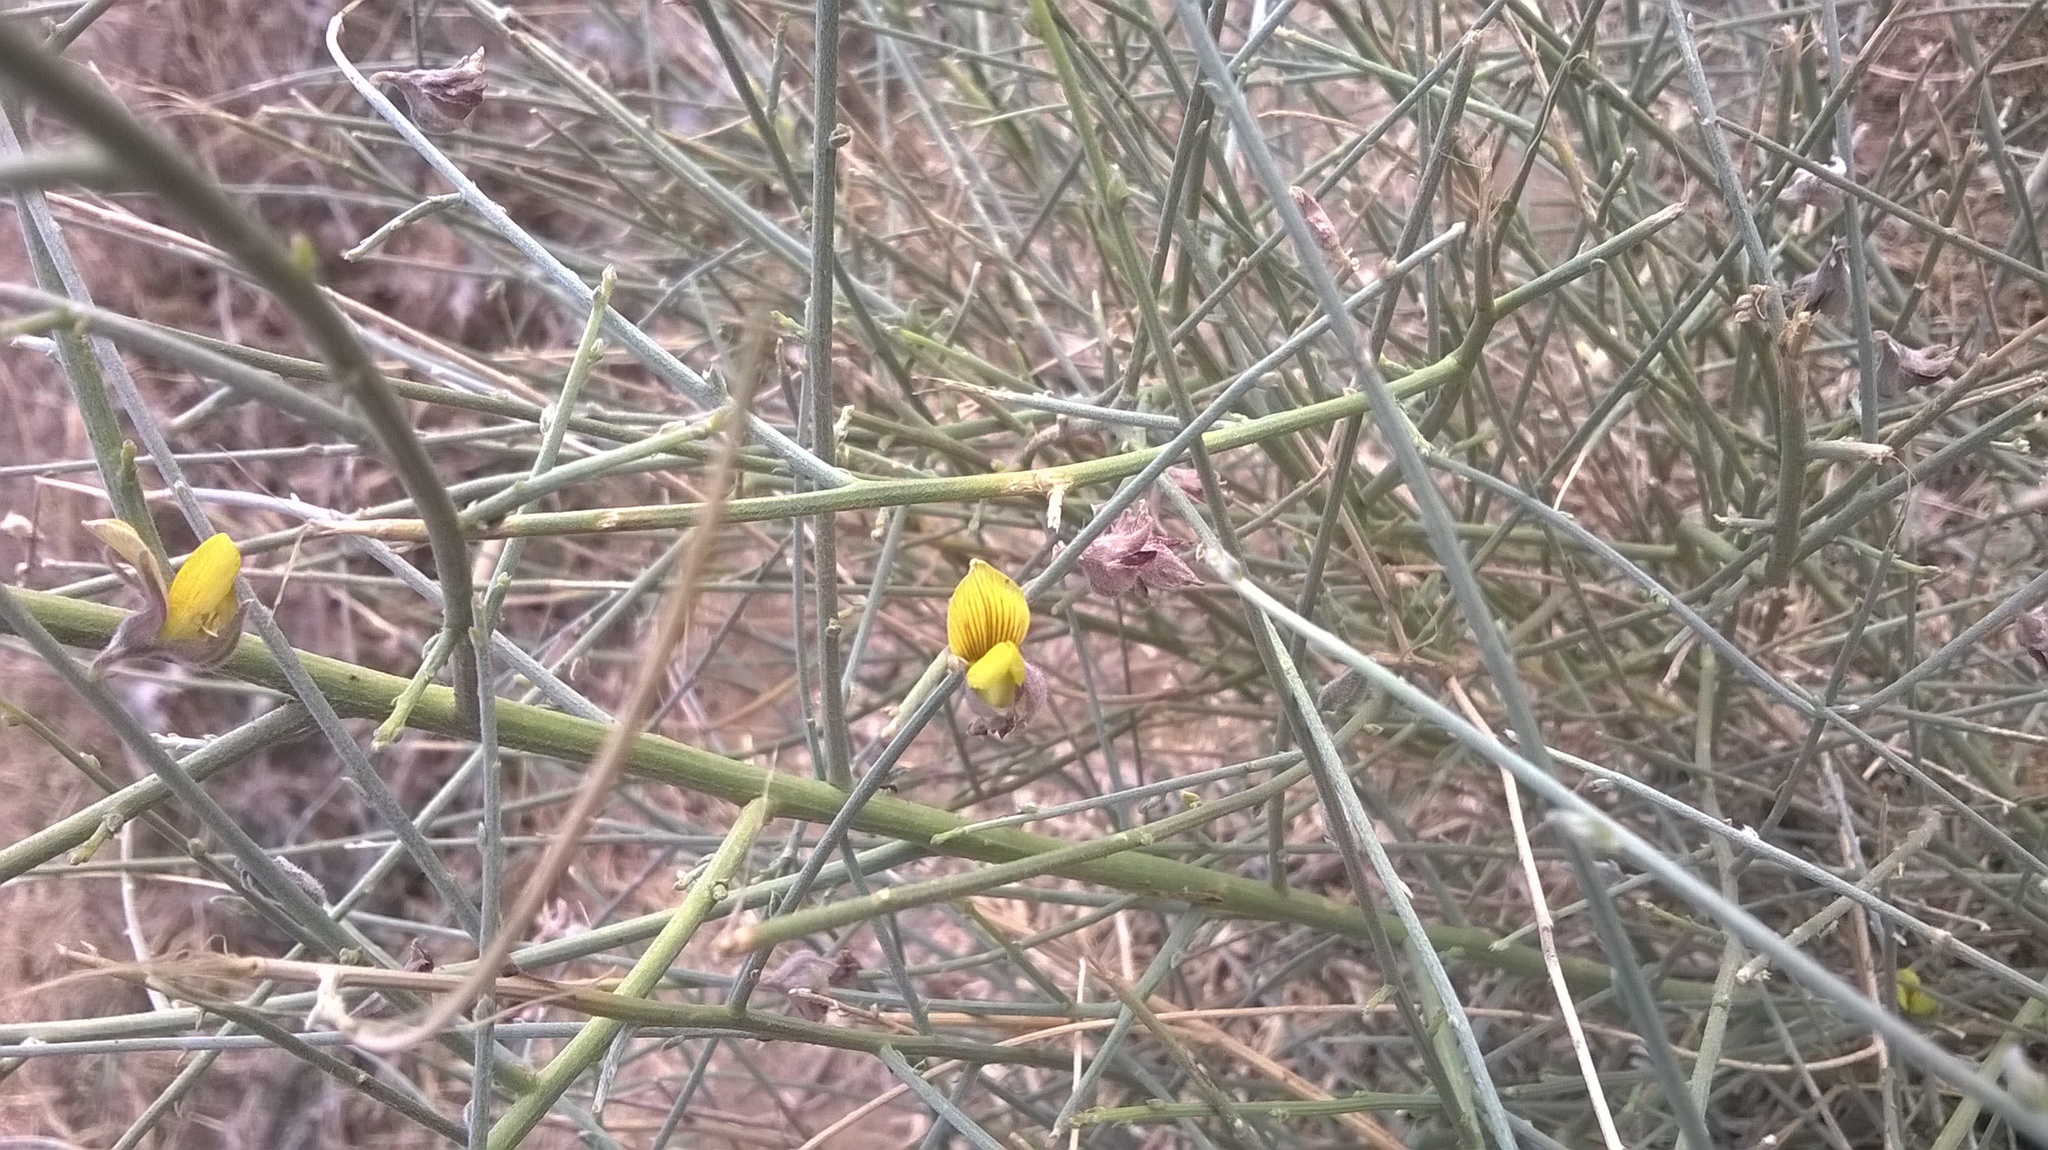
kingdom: Plantae
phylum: Tracheophyta
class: Magnoliopsida
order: Fabales
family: Fabaceae
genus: Crotalaria
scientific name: Crotalaria burhia
